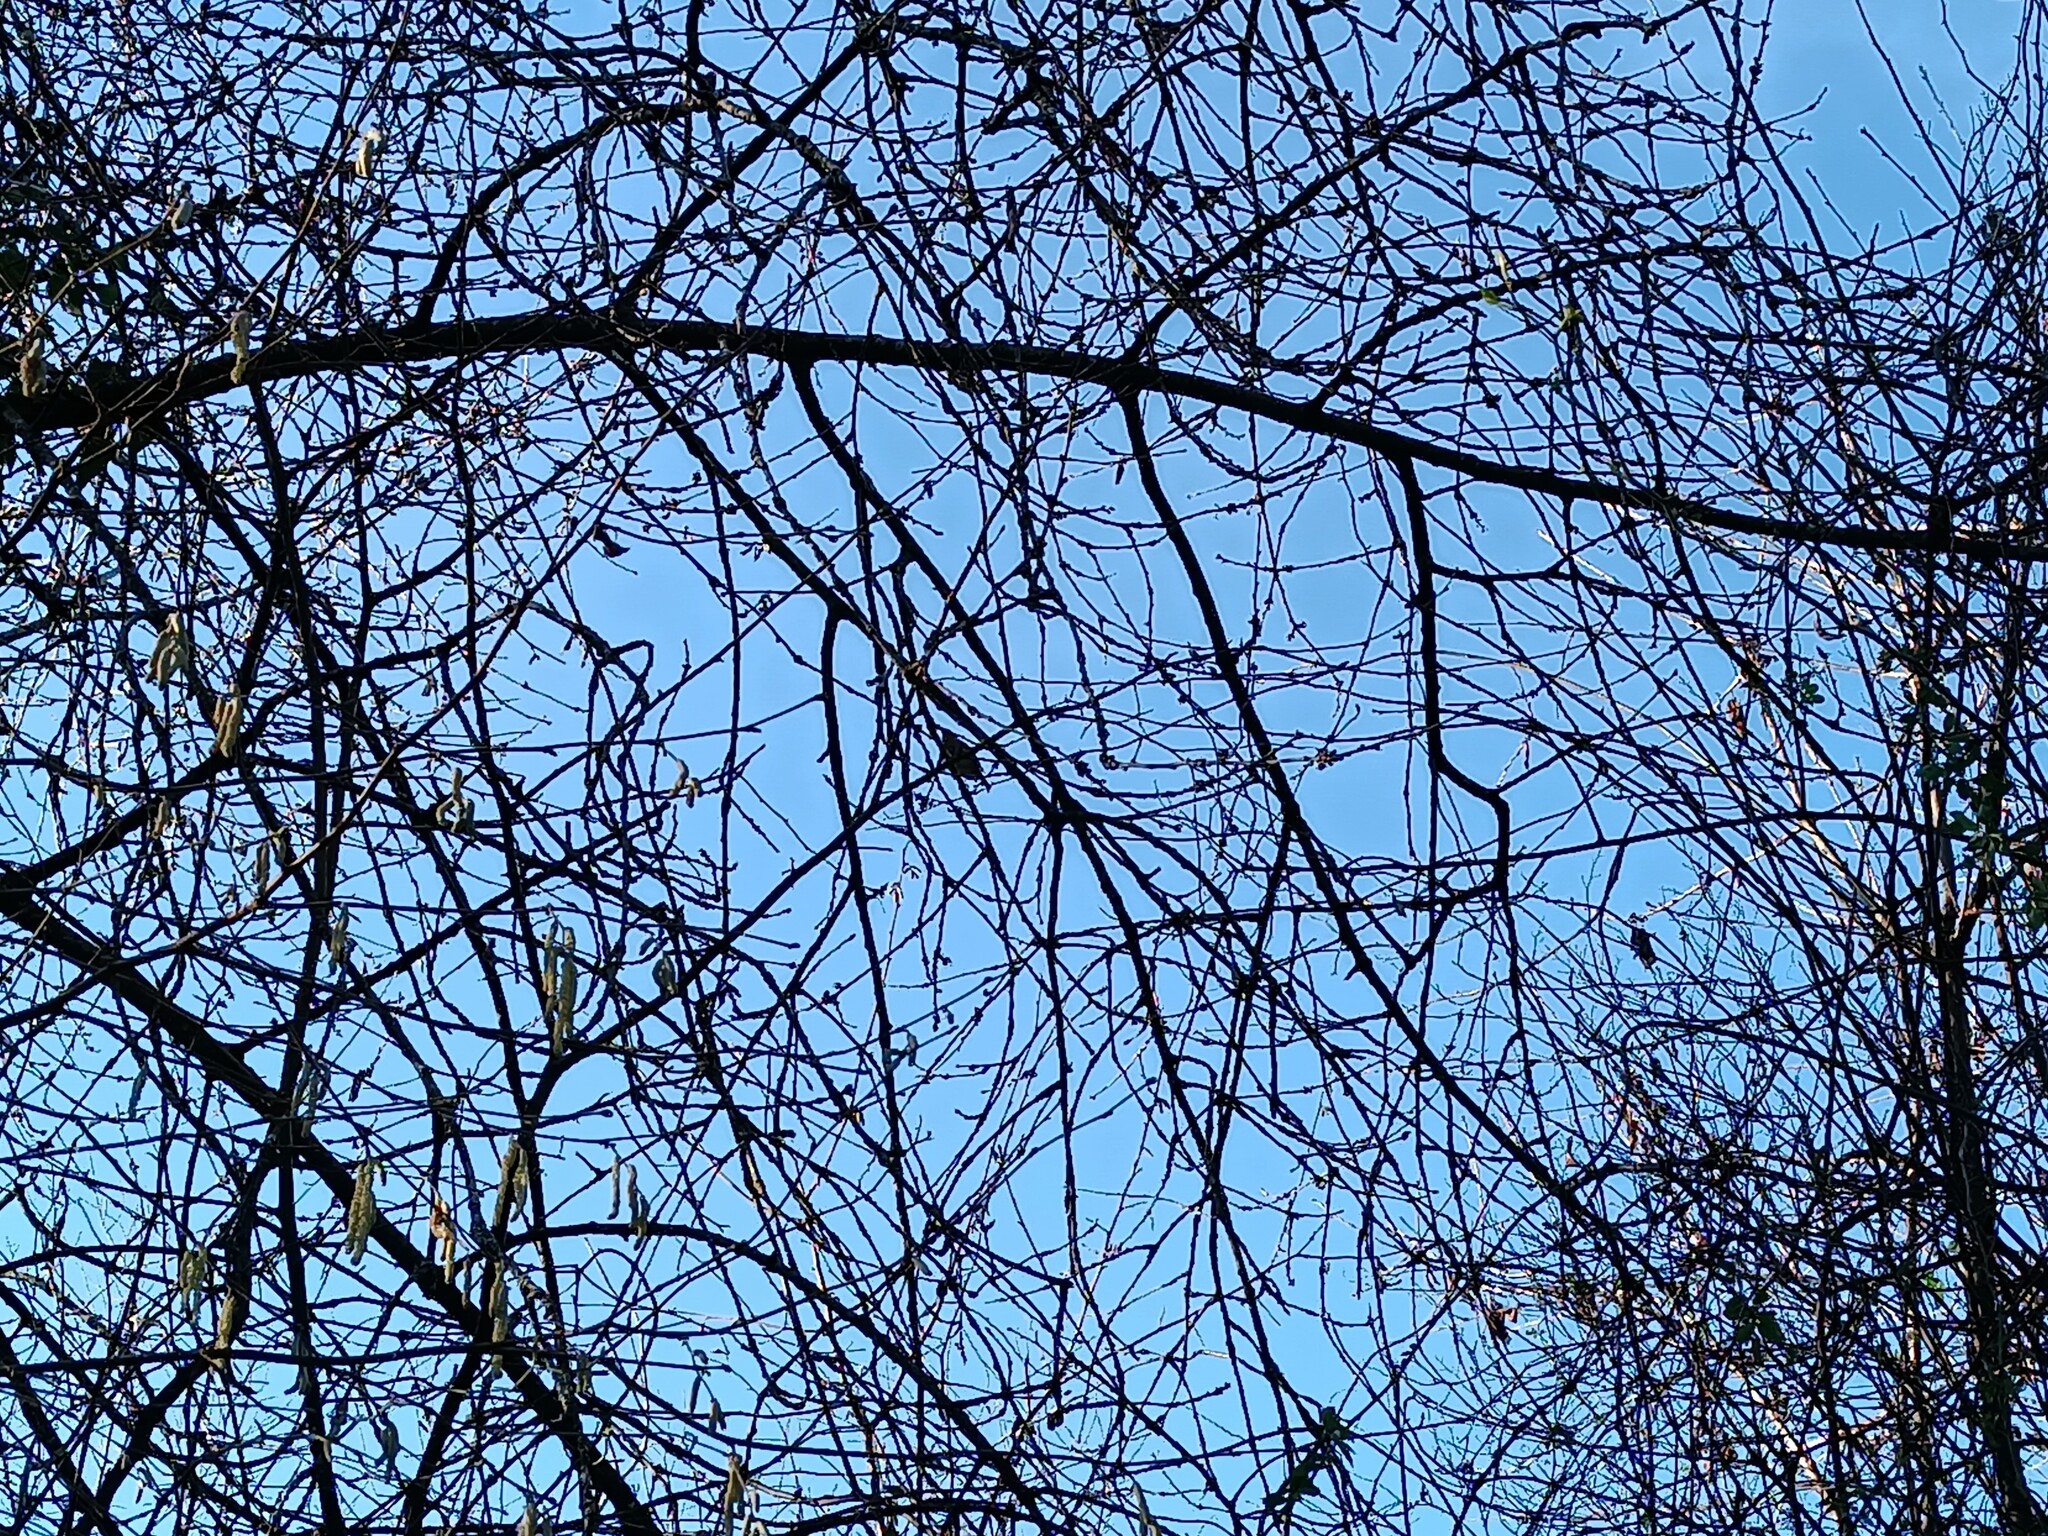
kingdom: Animalia
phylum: Chordata
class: Aves
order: Passeriformes
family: Muscicapidae
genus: Erithacus
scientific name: Erithacus rubecula
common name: European robin
